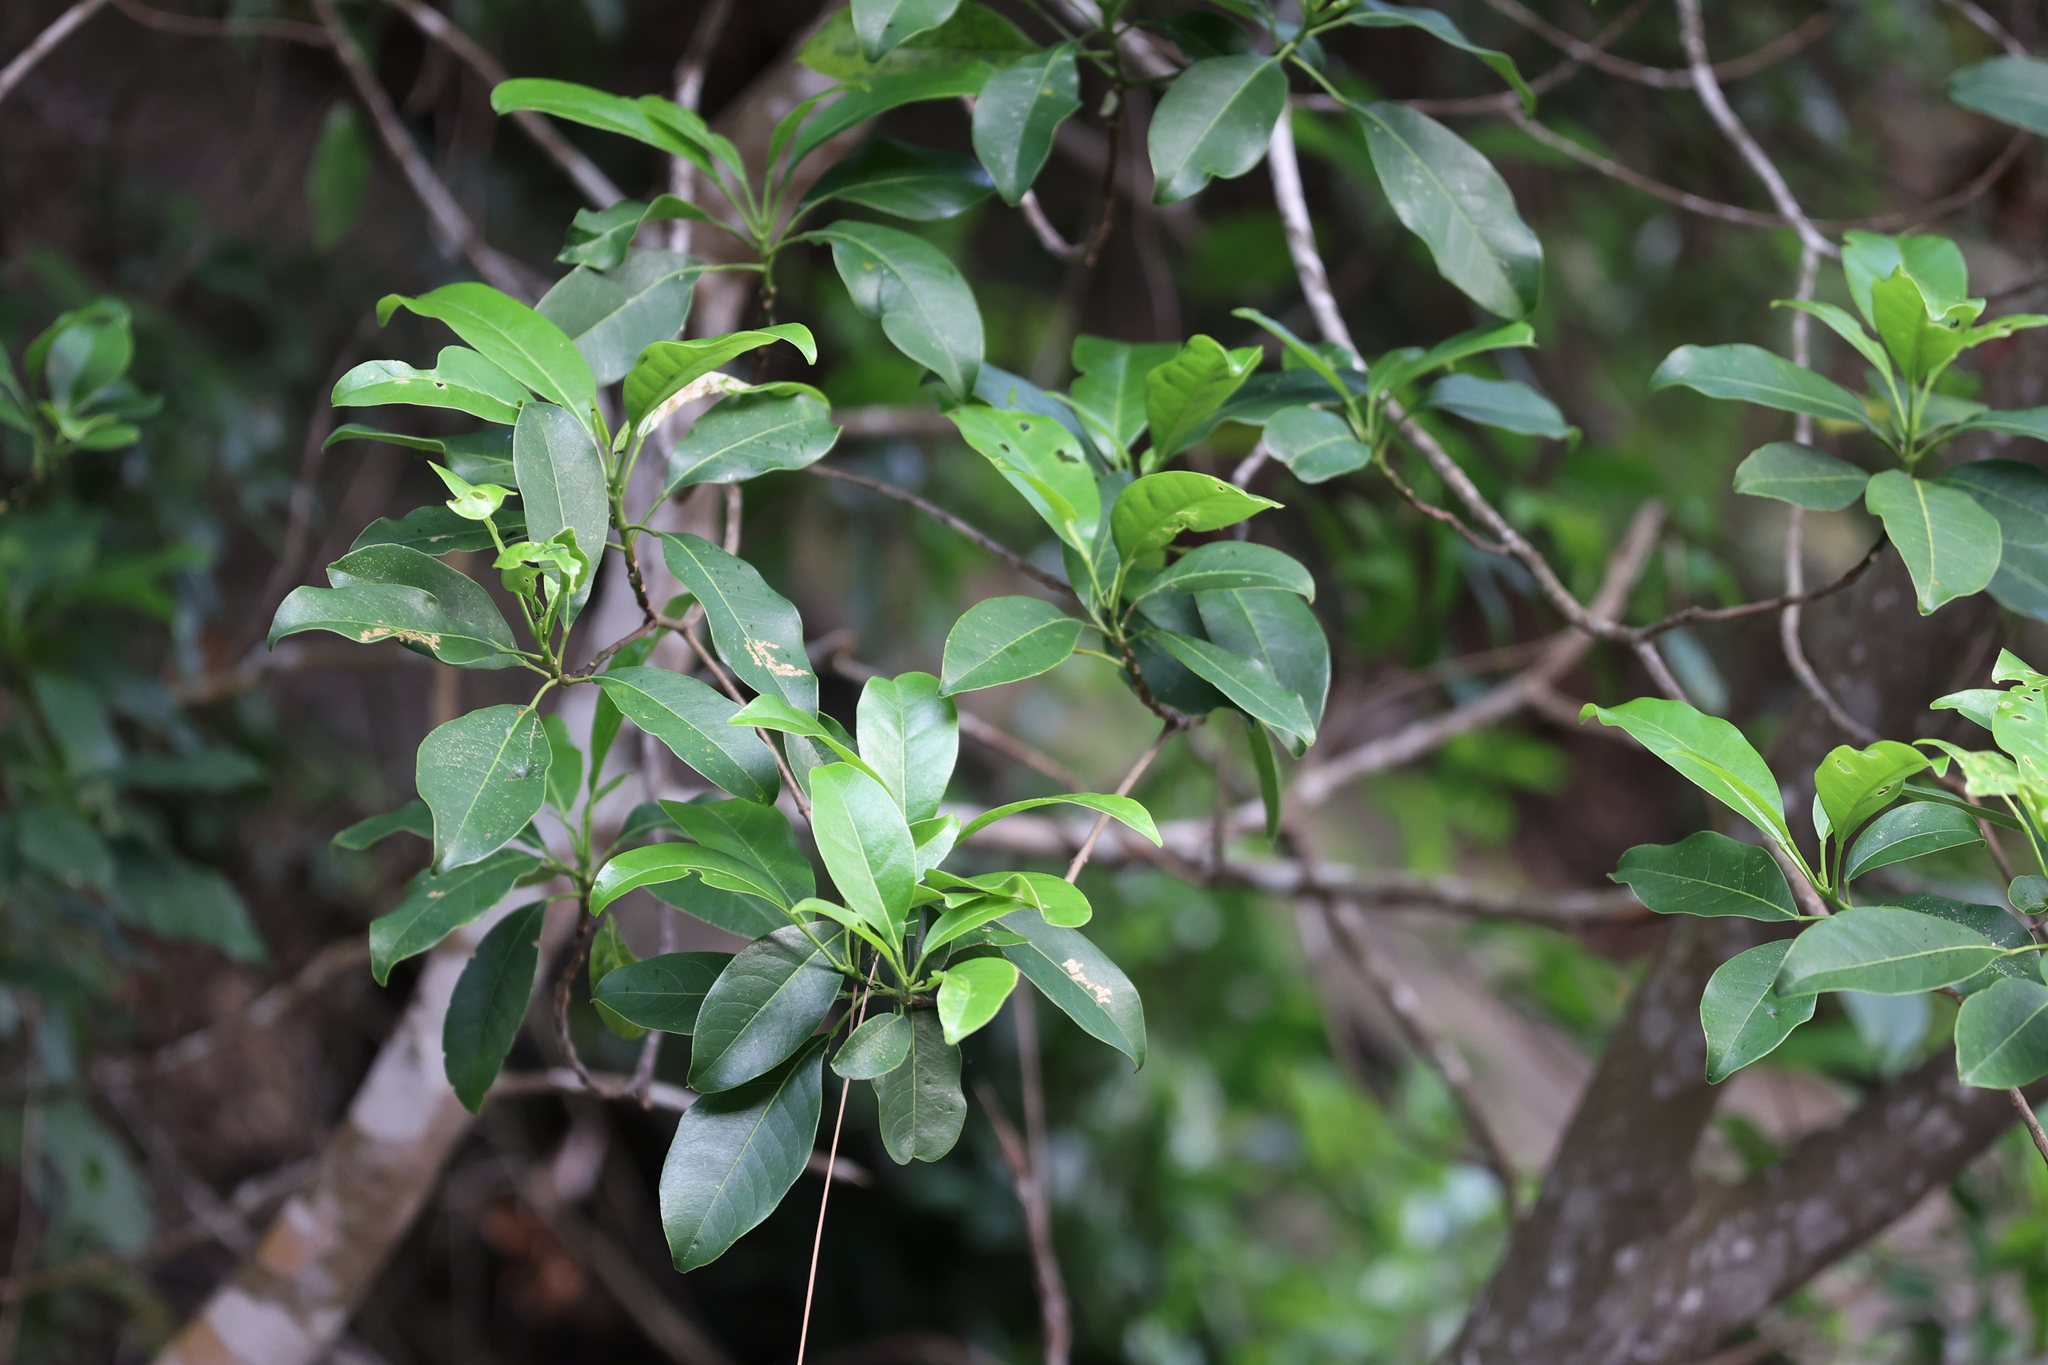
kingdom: Plantae
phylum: Tracheophyta
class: Magnoliopsida
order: Sapindales
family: Rutaceae
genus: Acronychia
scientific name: Acronychia pedunculata
